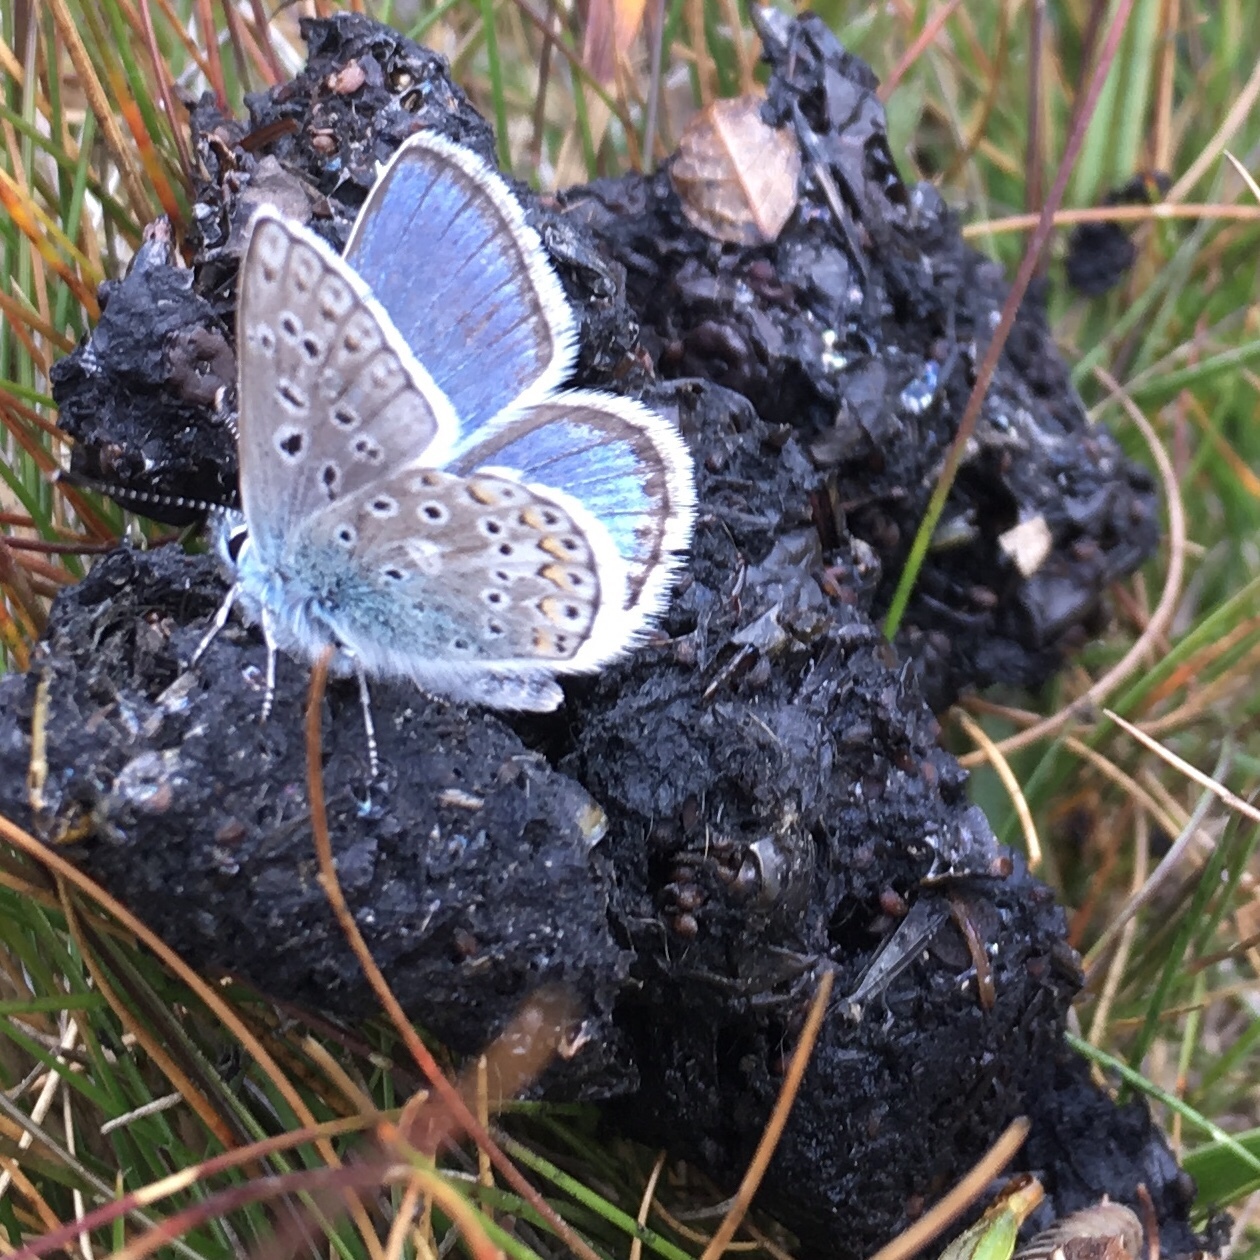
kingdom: Animalia
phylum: Arthropoda
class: Insecta
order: Lepidoptera
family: Lycaenidae
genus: Polyommatus
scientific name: Polyommatus eros
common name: Eros blue
